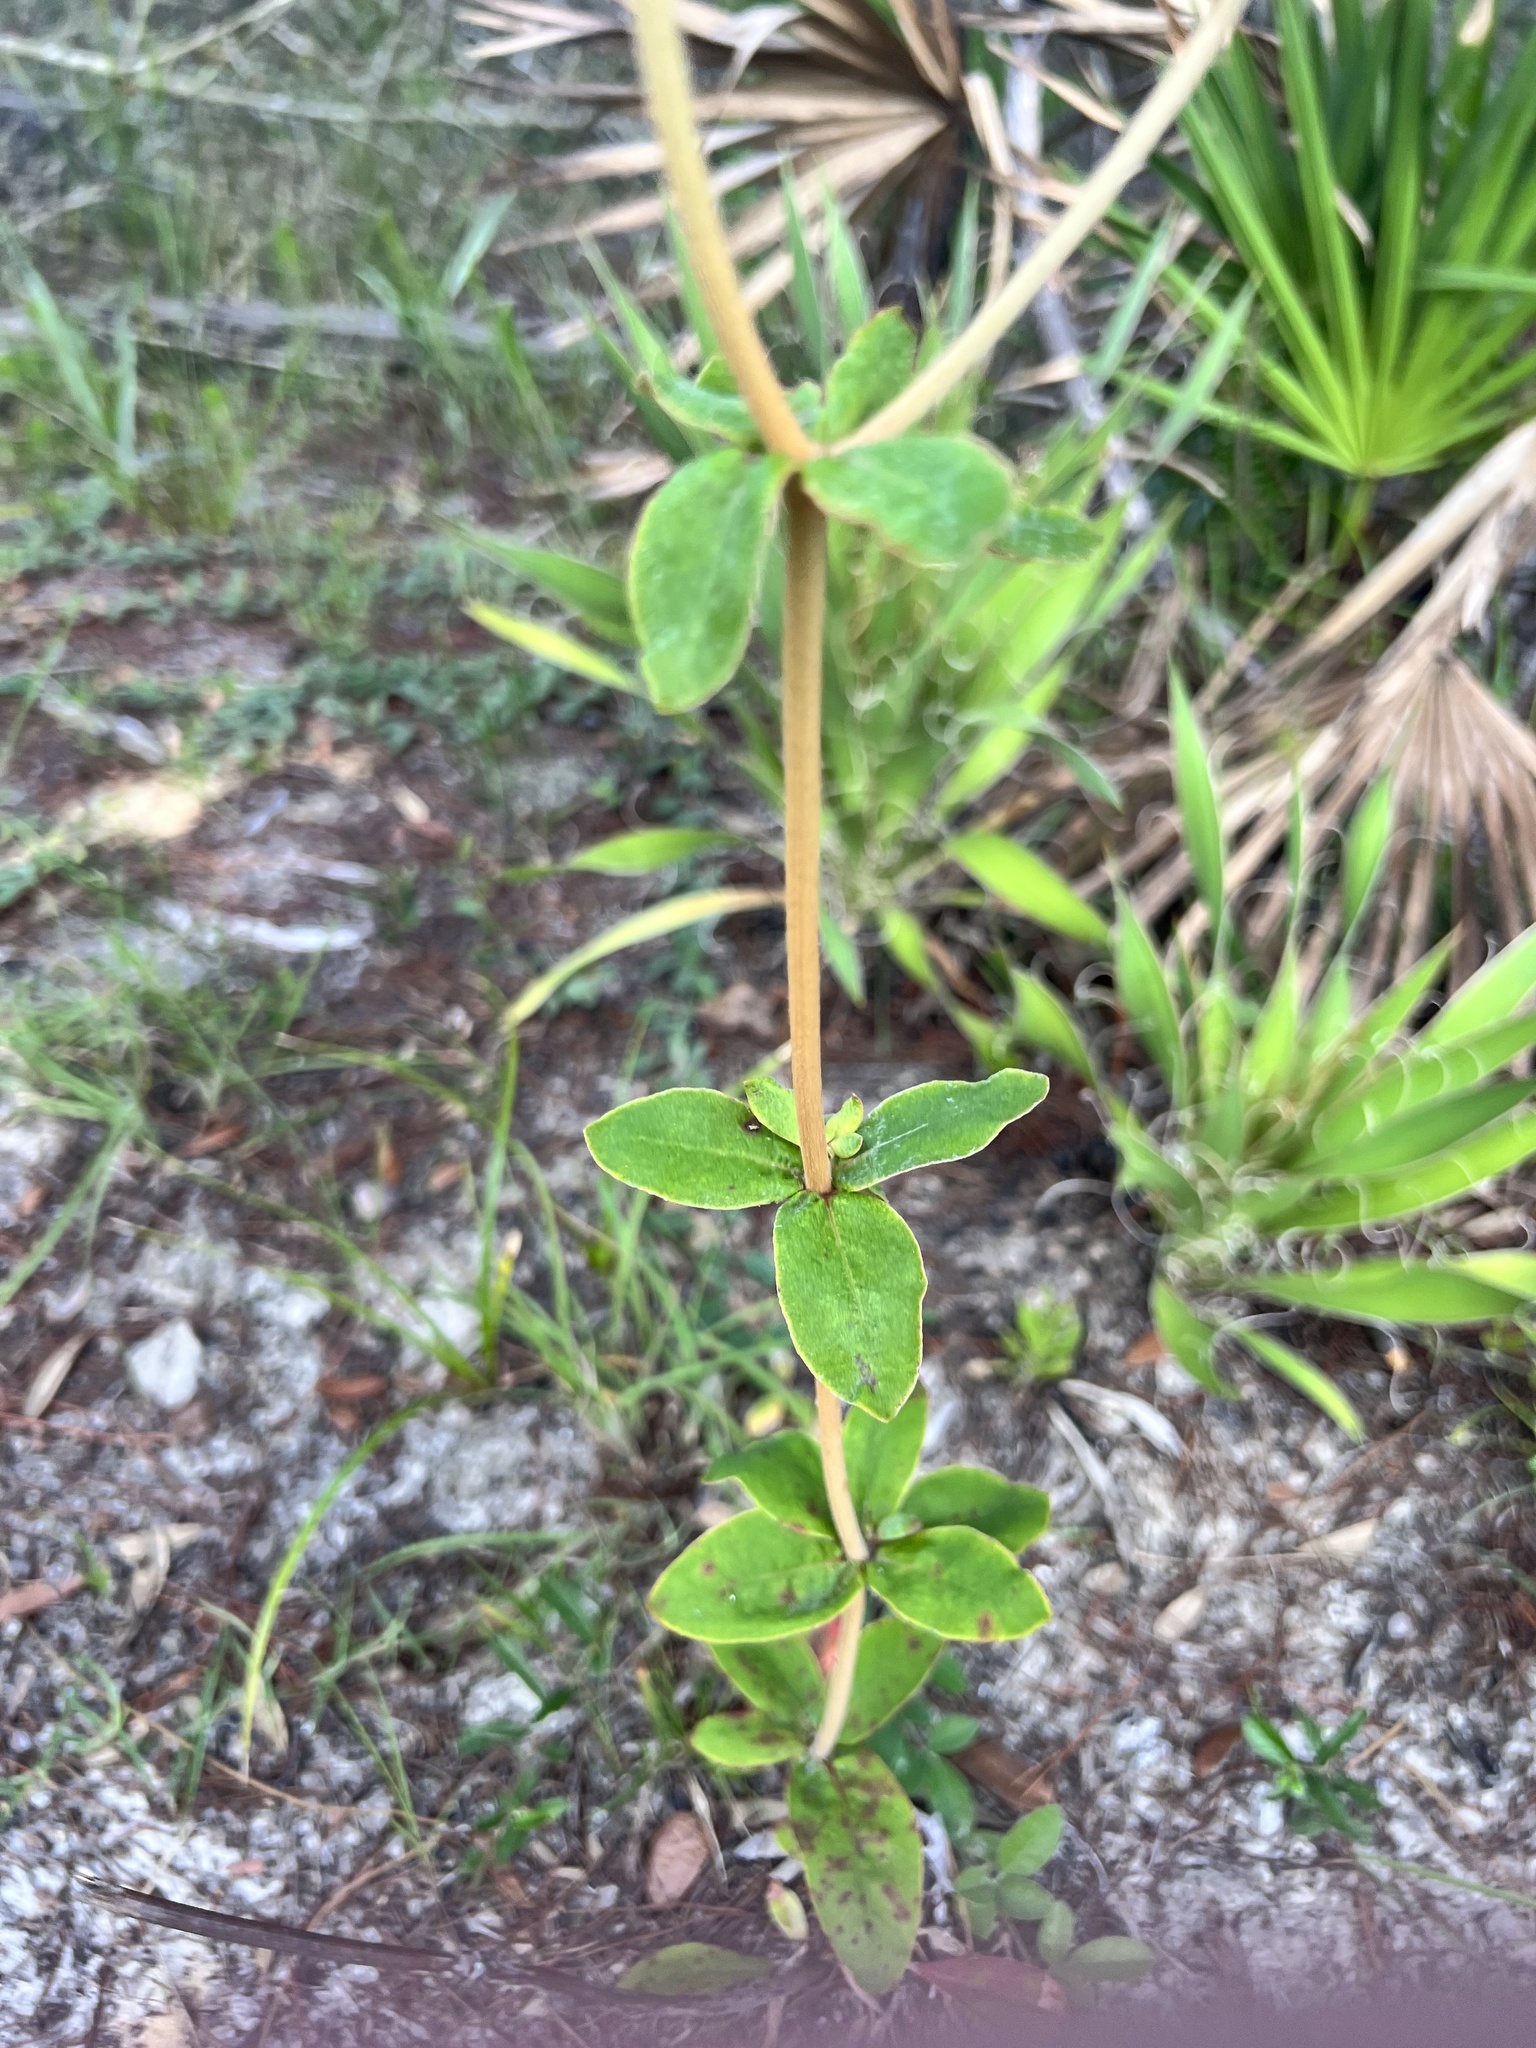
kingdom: Plantae
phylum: Tracheophyta
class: Magnoliopsida
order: Caryophyllales
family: Polygonaceae
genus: Eriogonum
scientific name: Eriogonum tomentosum
